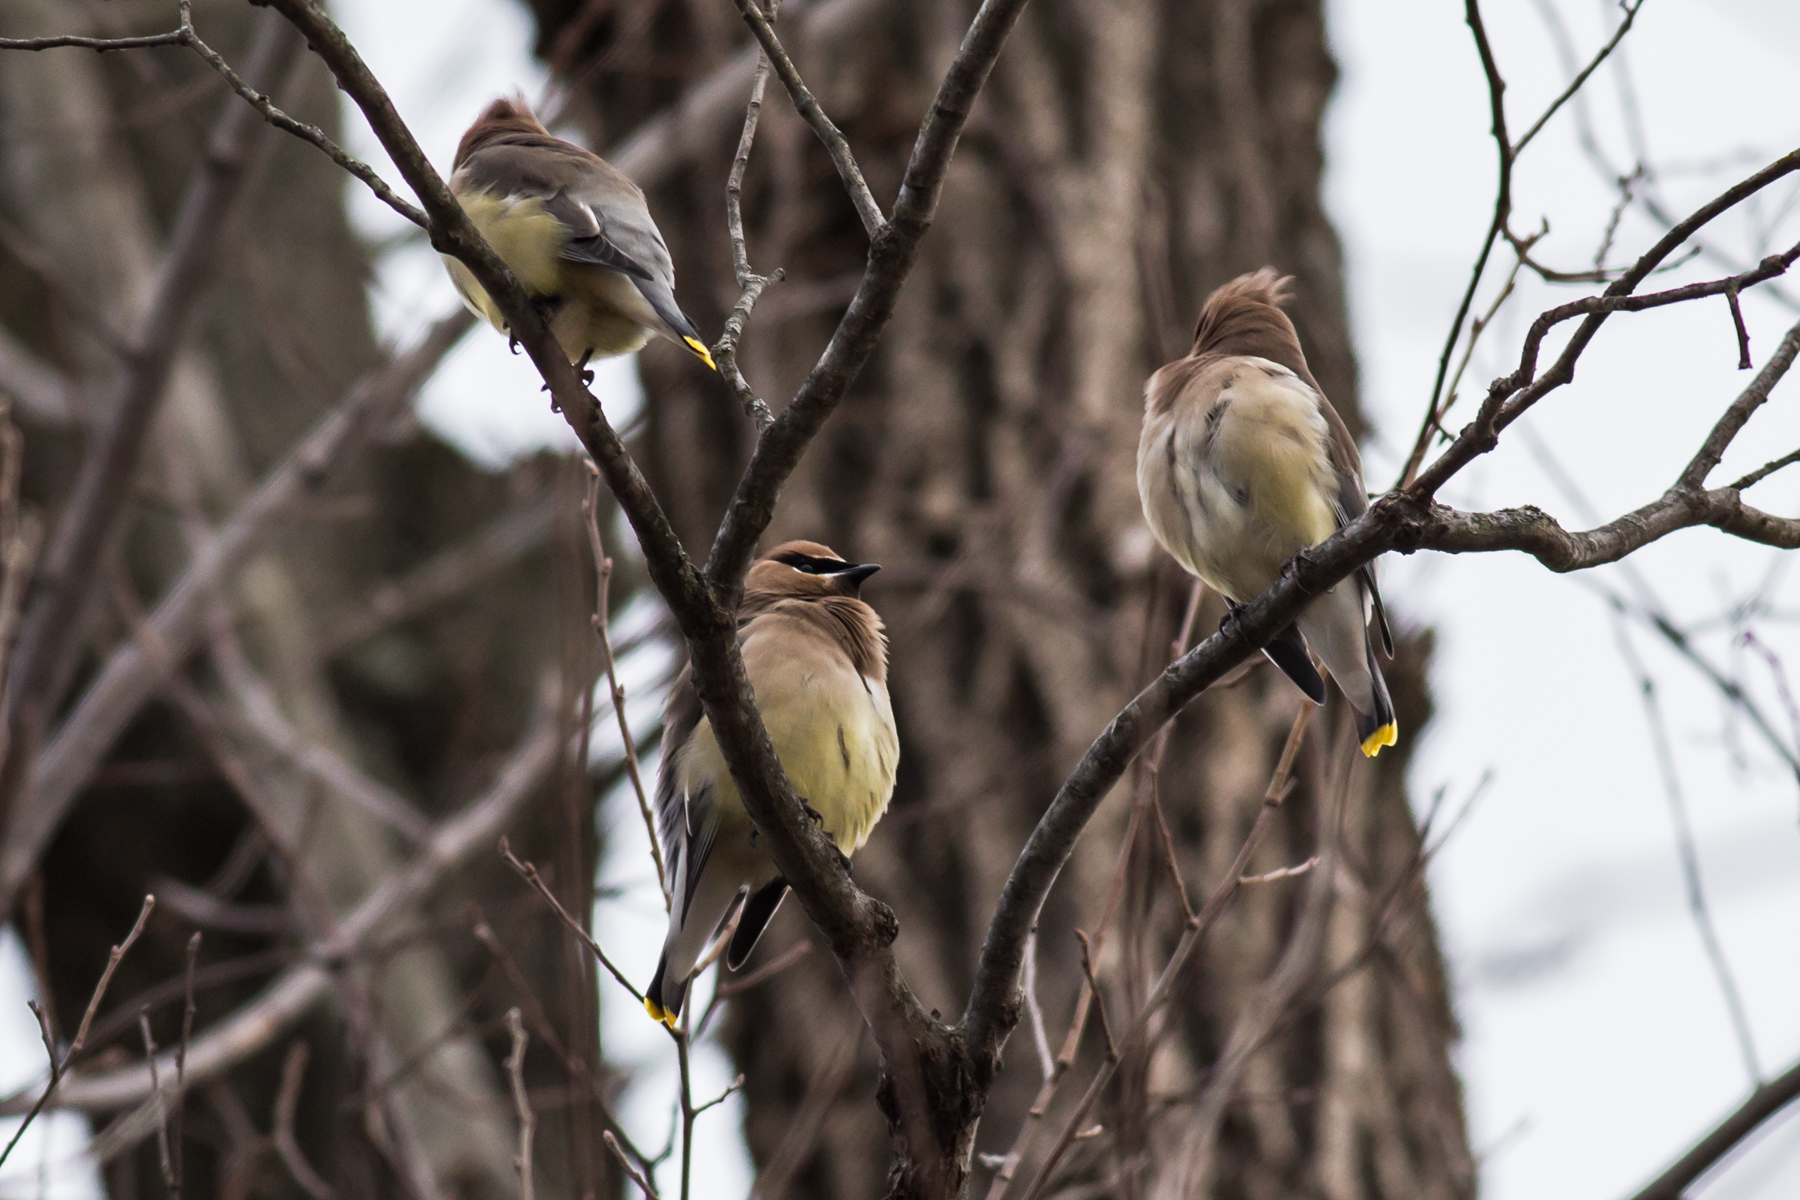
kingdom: Animalia
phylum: Chordata
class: Aves
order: Passeriformes
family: Bombycillidae
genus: Bombycilla
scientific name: Bombycilla cedrorum
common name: Cedar waxwing
